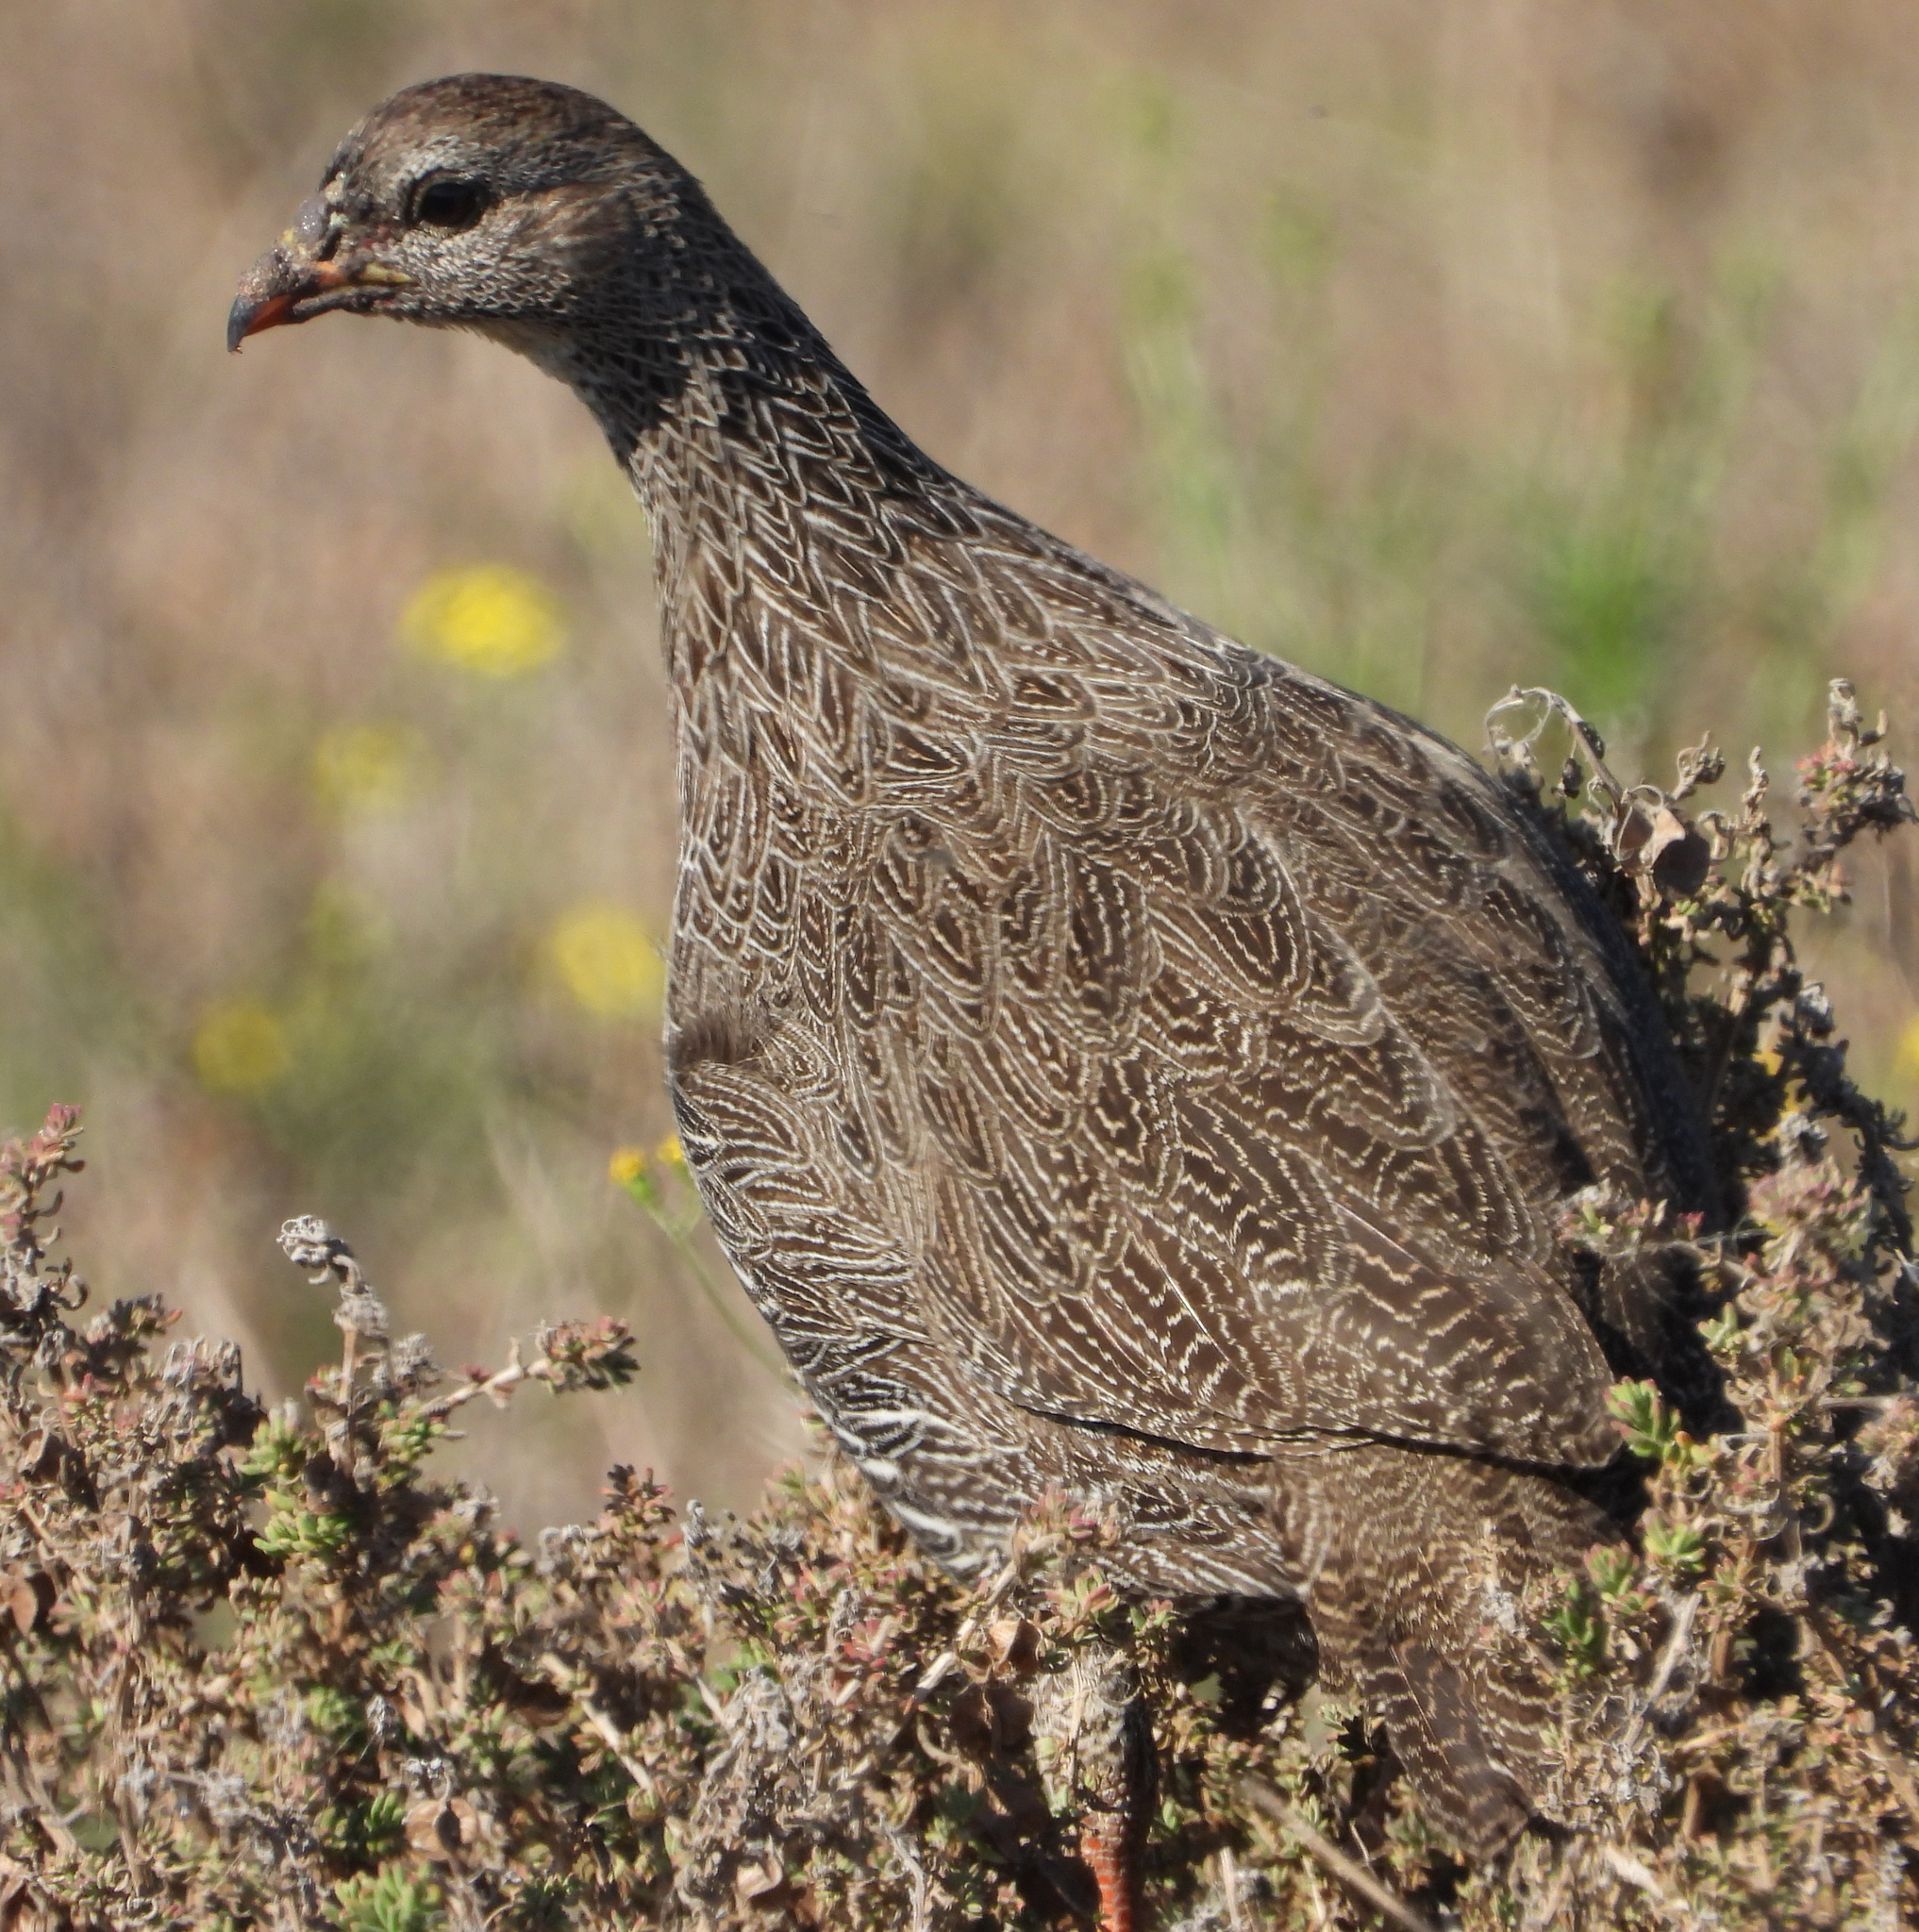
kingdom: Animalia
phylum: Chordata
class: Aves
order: Galliformes
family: Phasianidae
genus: Pternistis
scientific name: Pternistis capensis
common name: Cape spurfowl
